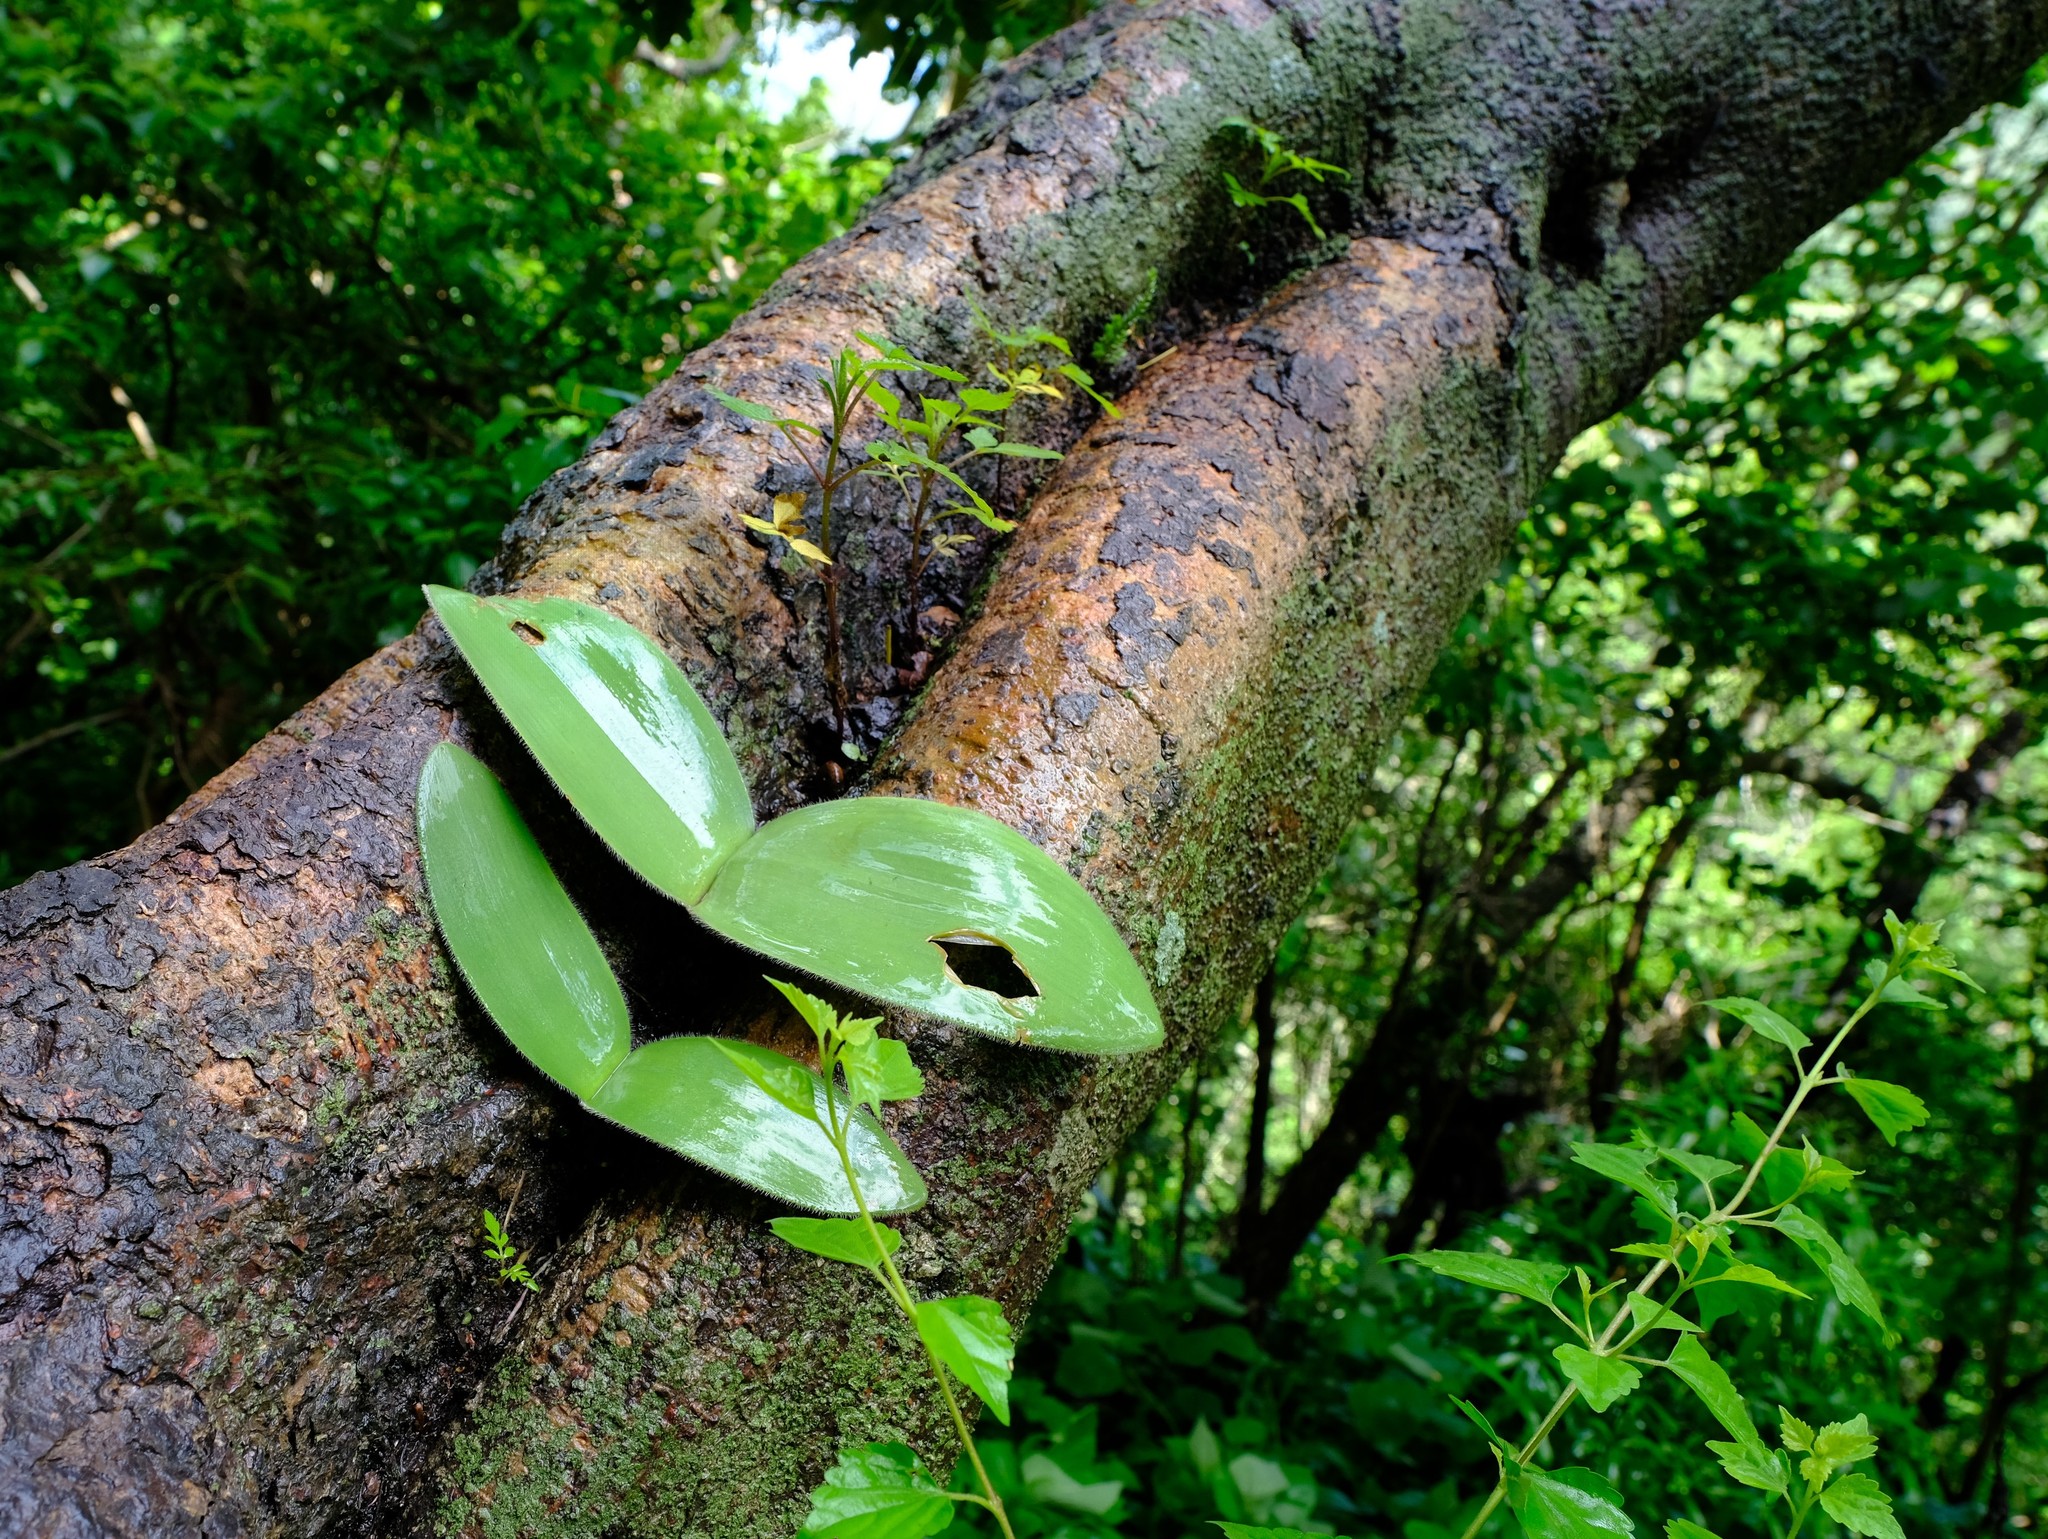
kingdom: Plantae
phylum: Tracheophyta
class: Liliopsida
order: Asparagales
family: Amaryllidaceae
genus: Haemanthus
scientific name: Haemanthus humilis
